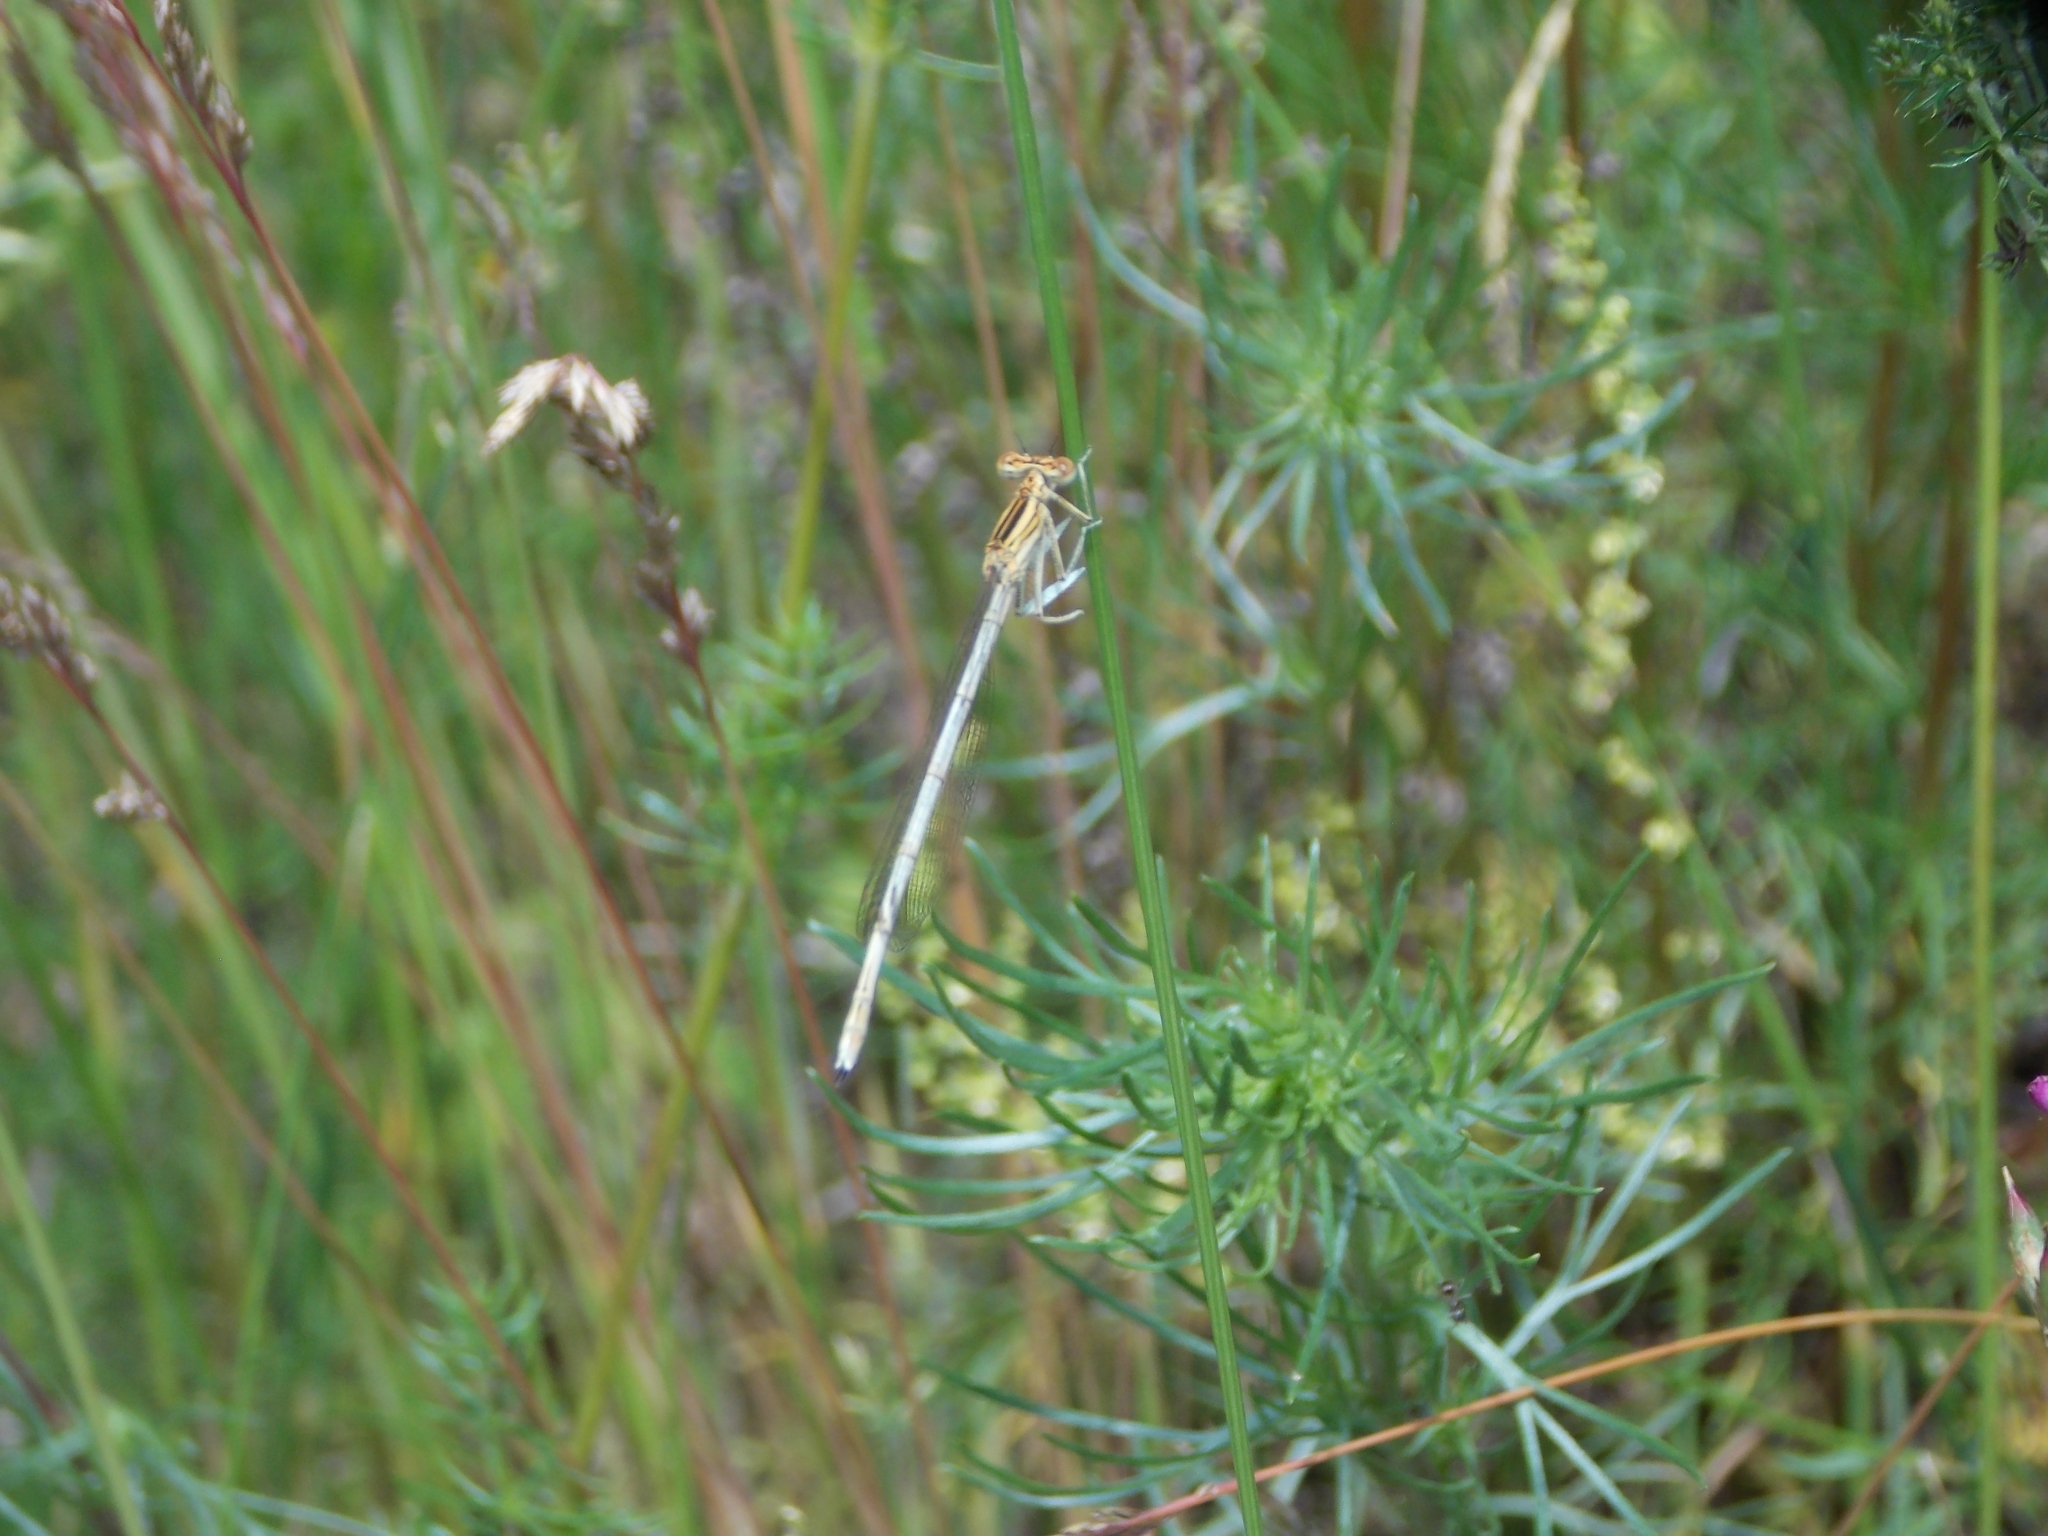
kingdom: Animalia
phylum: Arthropoda
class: Insecta
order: Odonata
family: Platycnemididae
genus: Platycnemis
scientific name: Platycnemis pennipes
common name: White-legged damselfly
